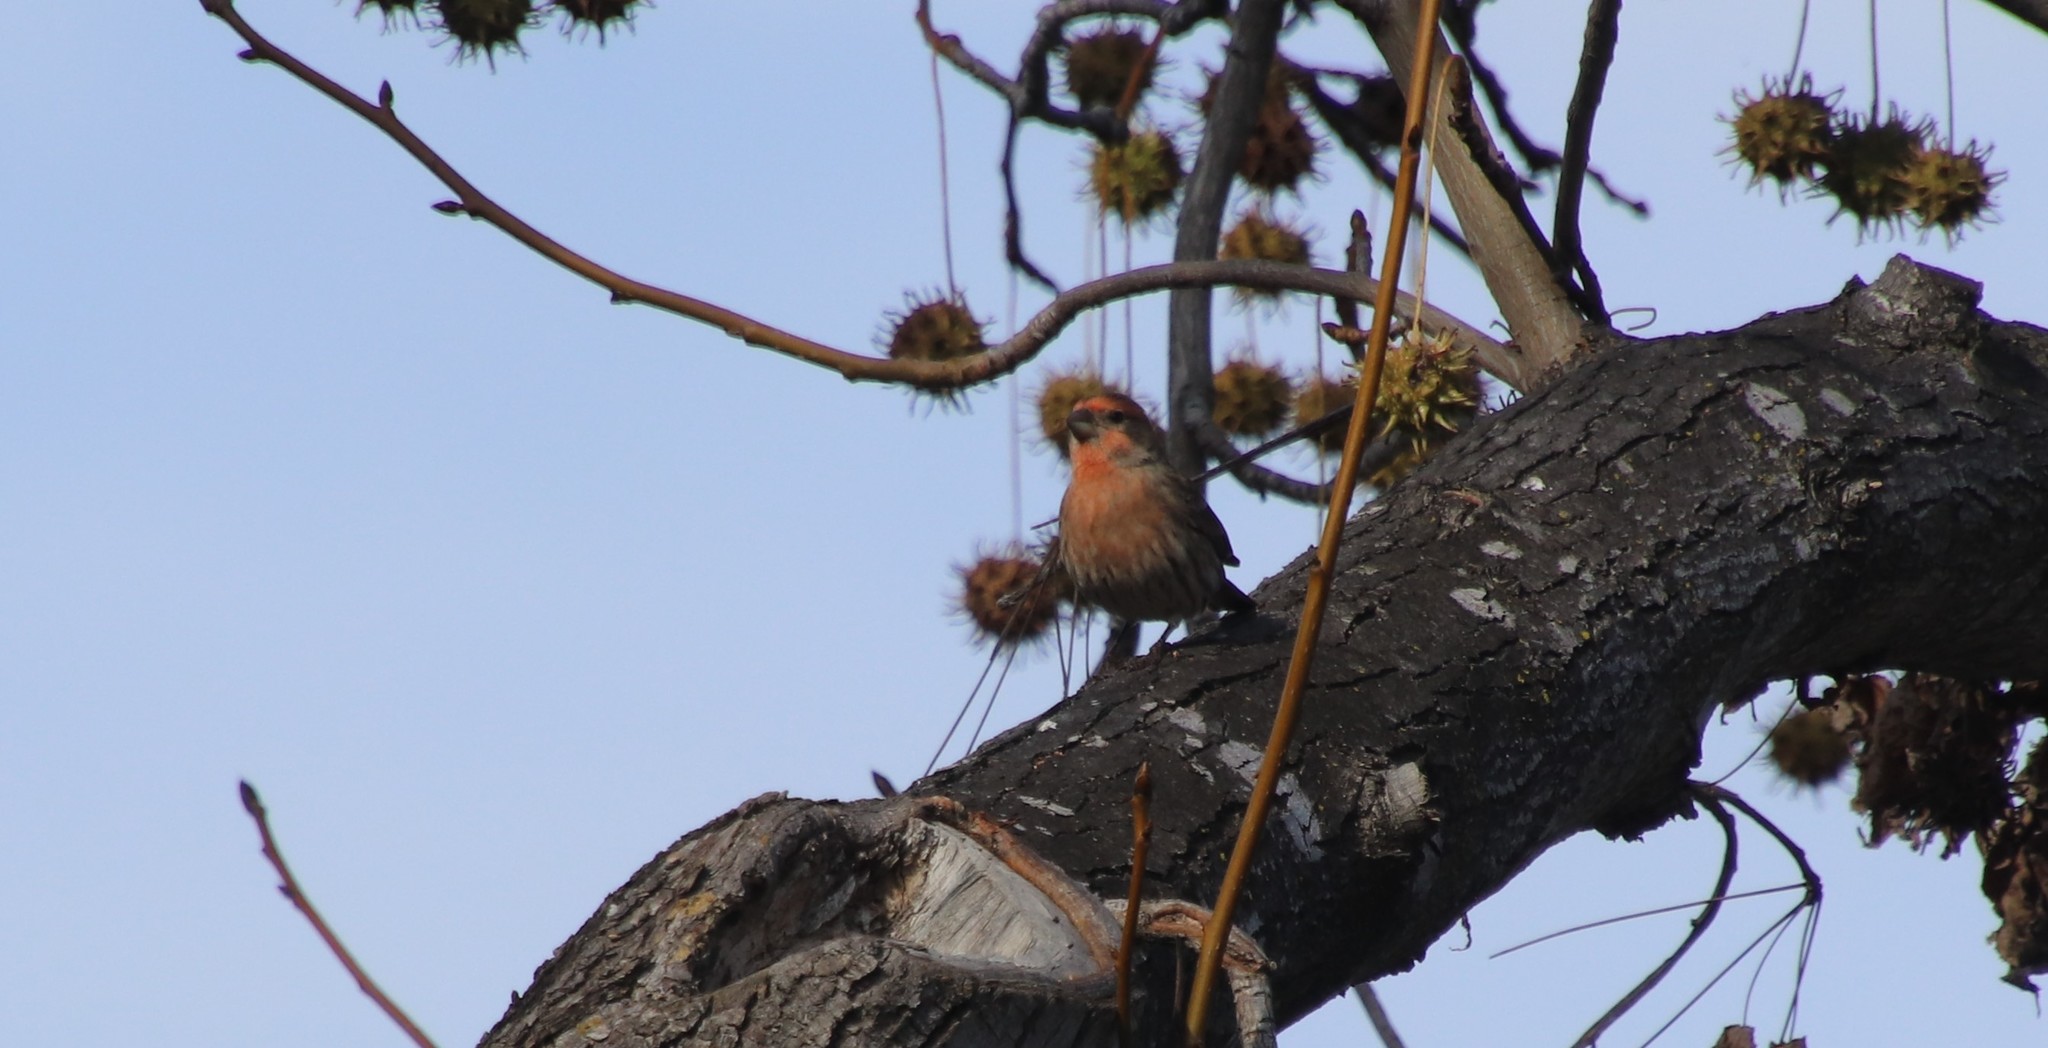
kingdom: Animalia
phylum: Chordata
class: Aves
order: Passeriformes
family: Fringillidae
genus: Haemorhous
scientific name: Haemorhous mexicanus
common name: House finch
